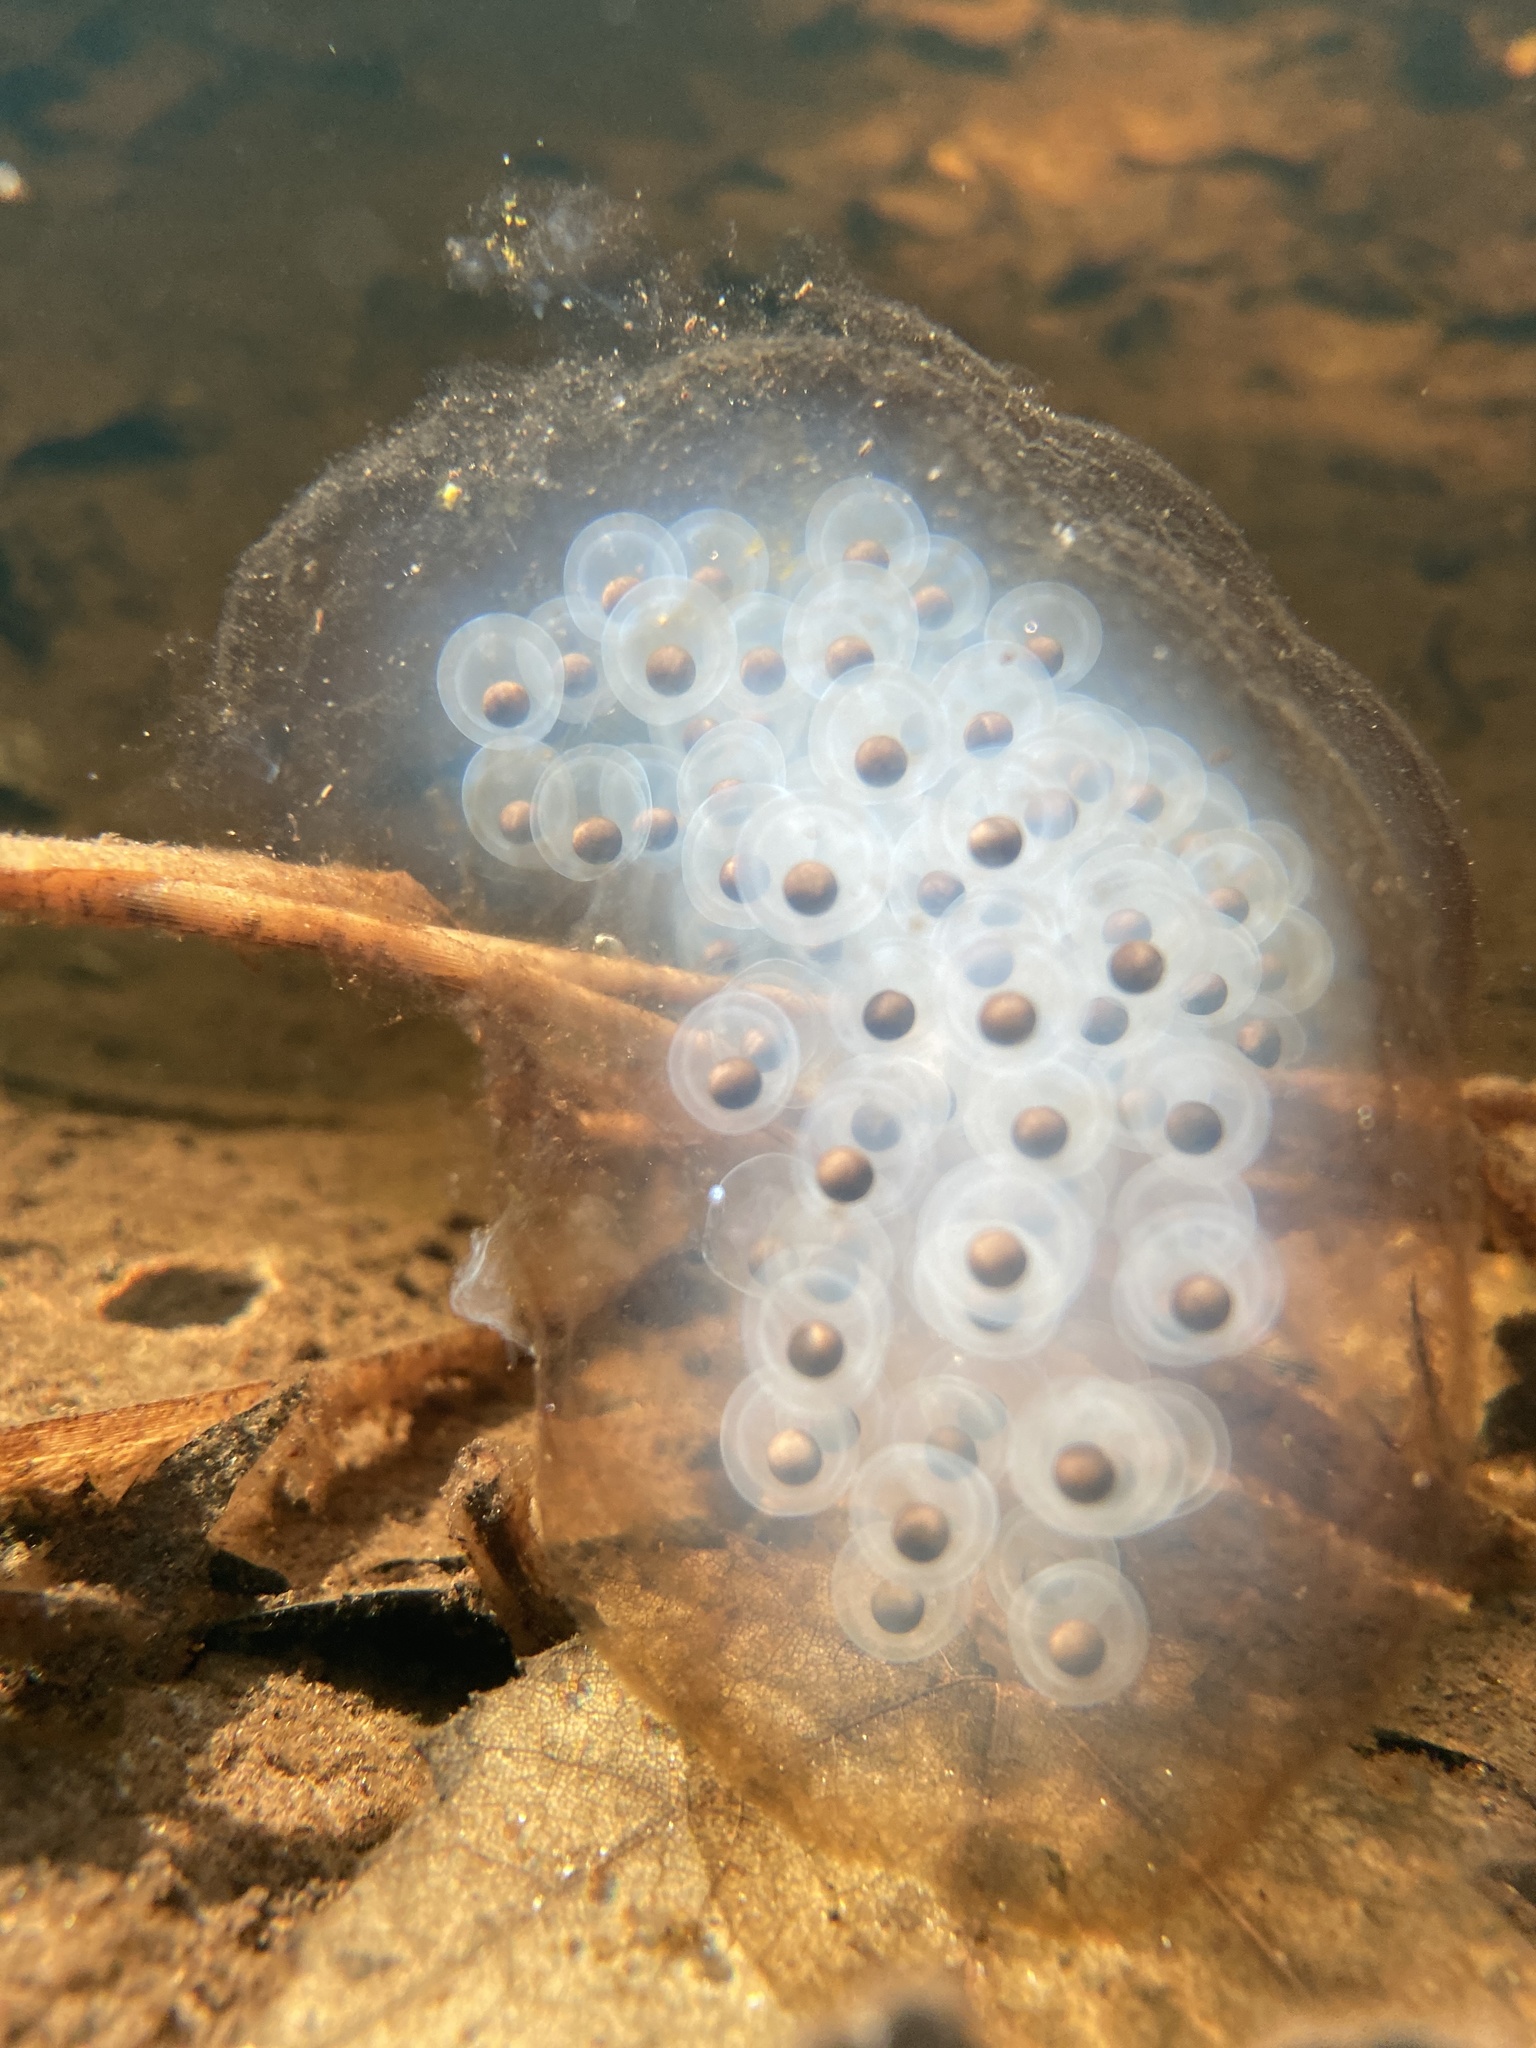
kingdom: Animalia
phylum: Chordata
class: Amphibia
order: Caudata
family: Ambystomatidae
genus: Ambystoma
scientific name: Ambystoma maculatum
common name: Spotted salamander
